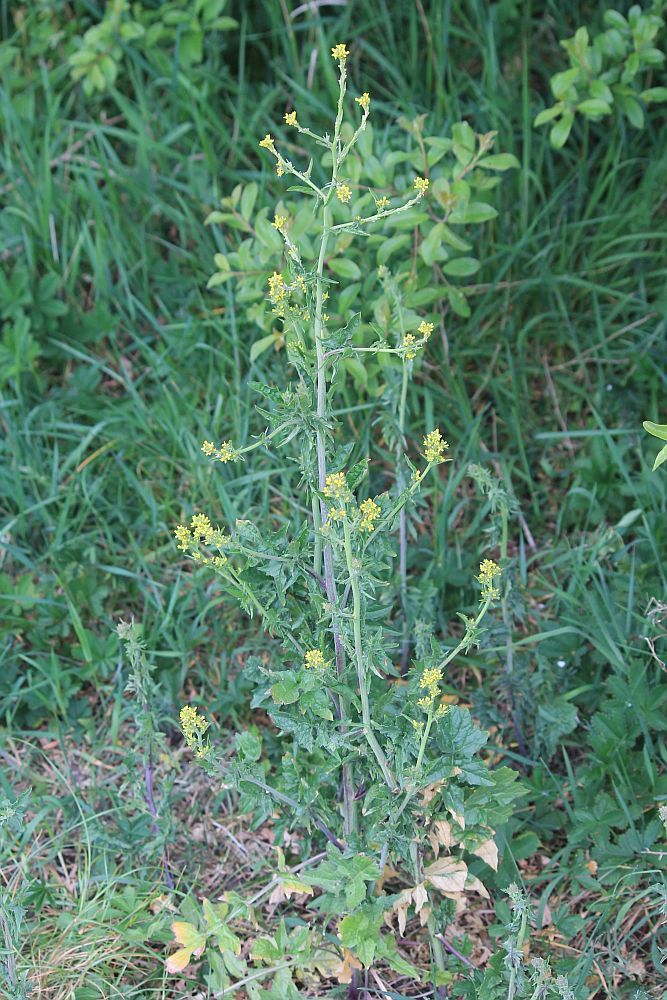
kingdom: Plantae
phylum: Tracheophyta
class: Magnoliopsida
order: Brassicales
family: Brassicaceae
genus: Sisymbrium
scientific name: Sisymbrium officinale
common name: Hedge mustard
